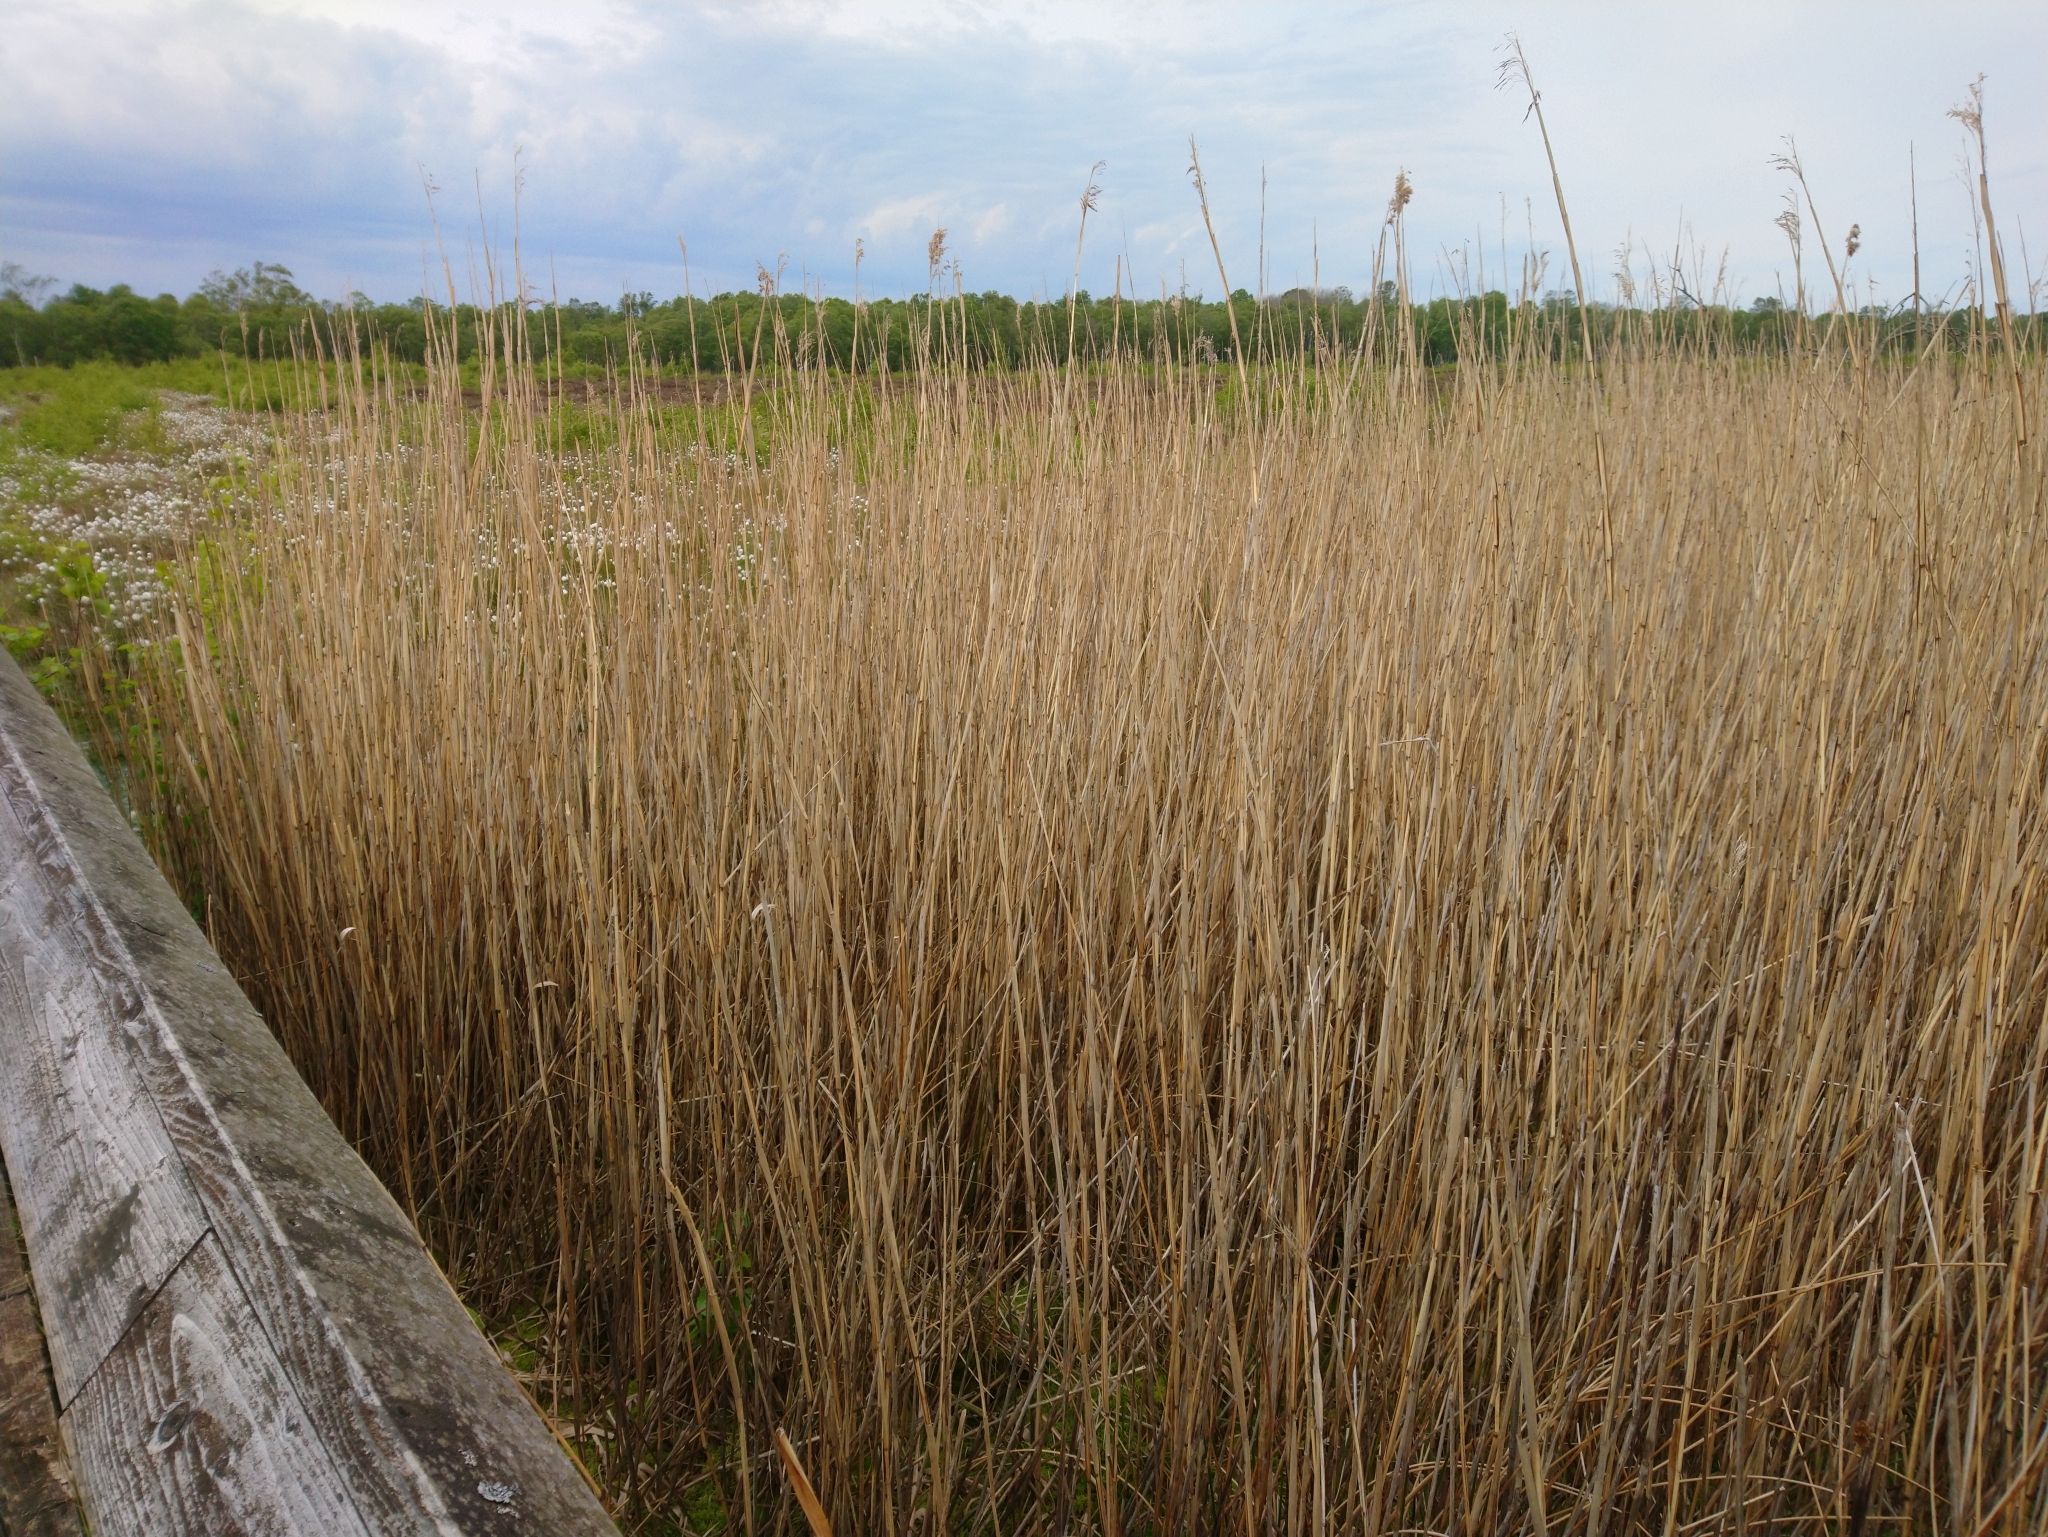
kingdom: Plantae
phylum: Tracheophyta
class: Liliopsida
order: Poales
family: Poaceae
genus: Phragmites
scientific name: Phragmites australis
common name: Common reed
